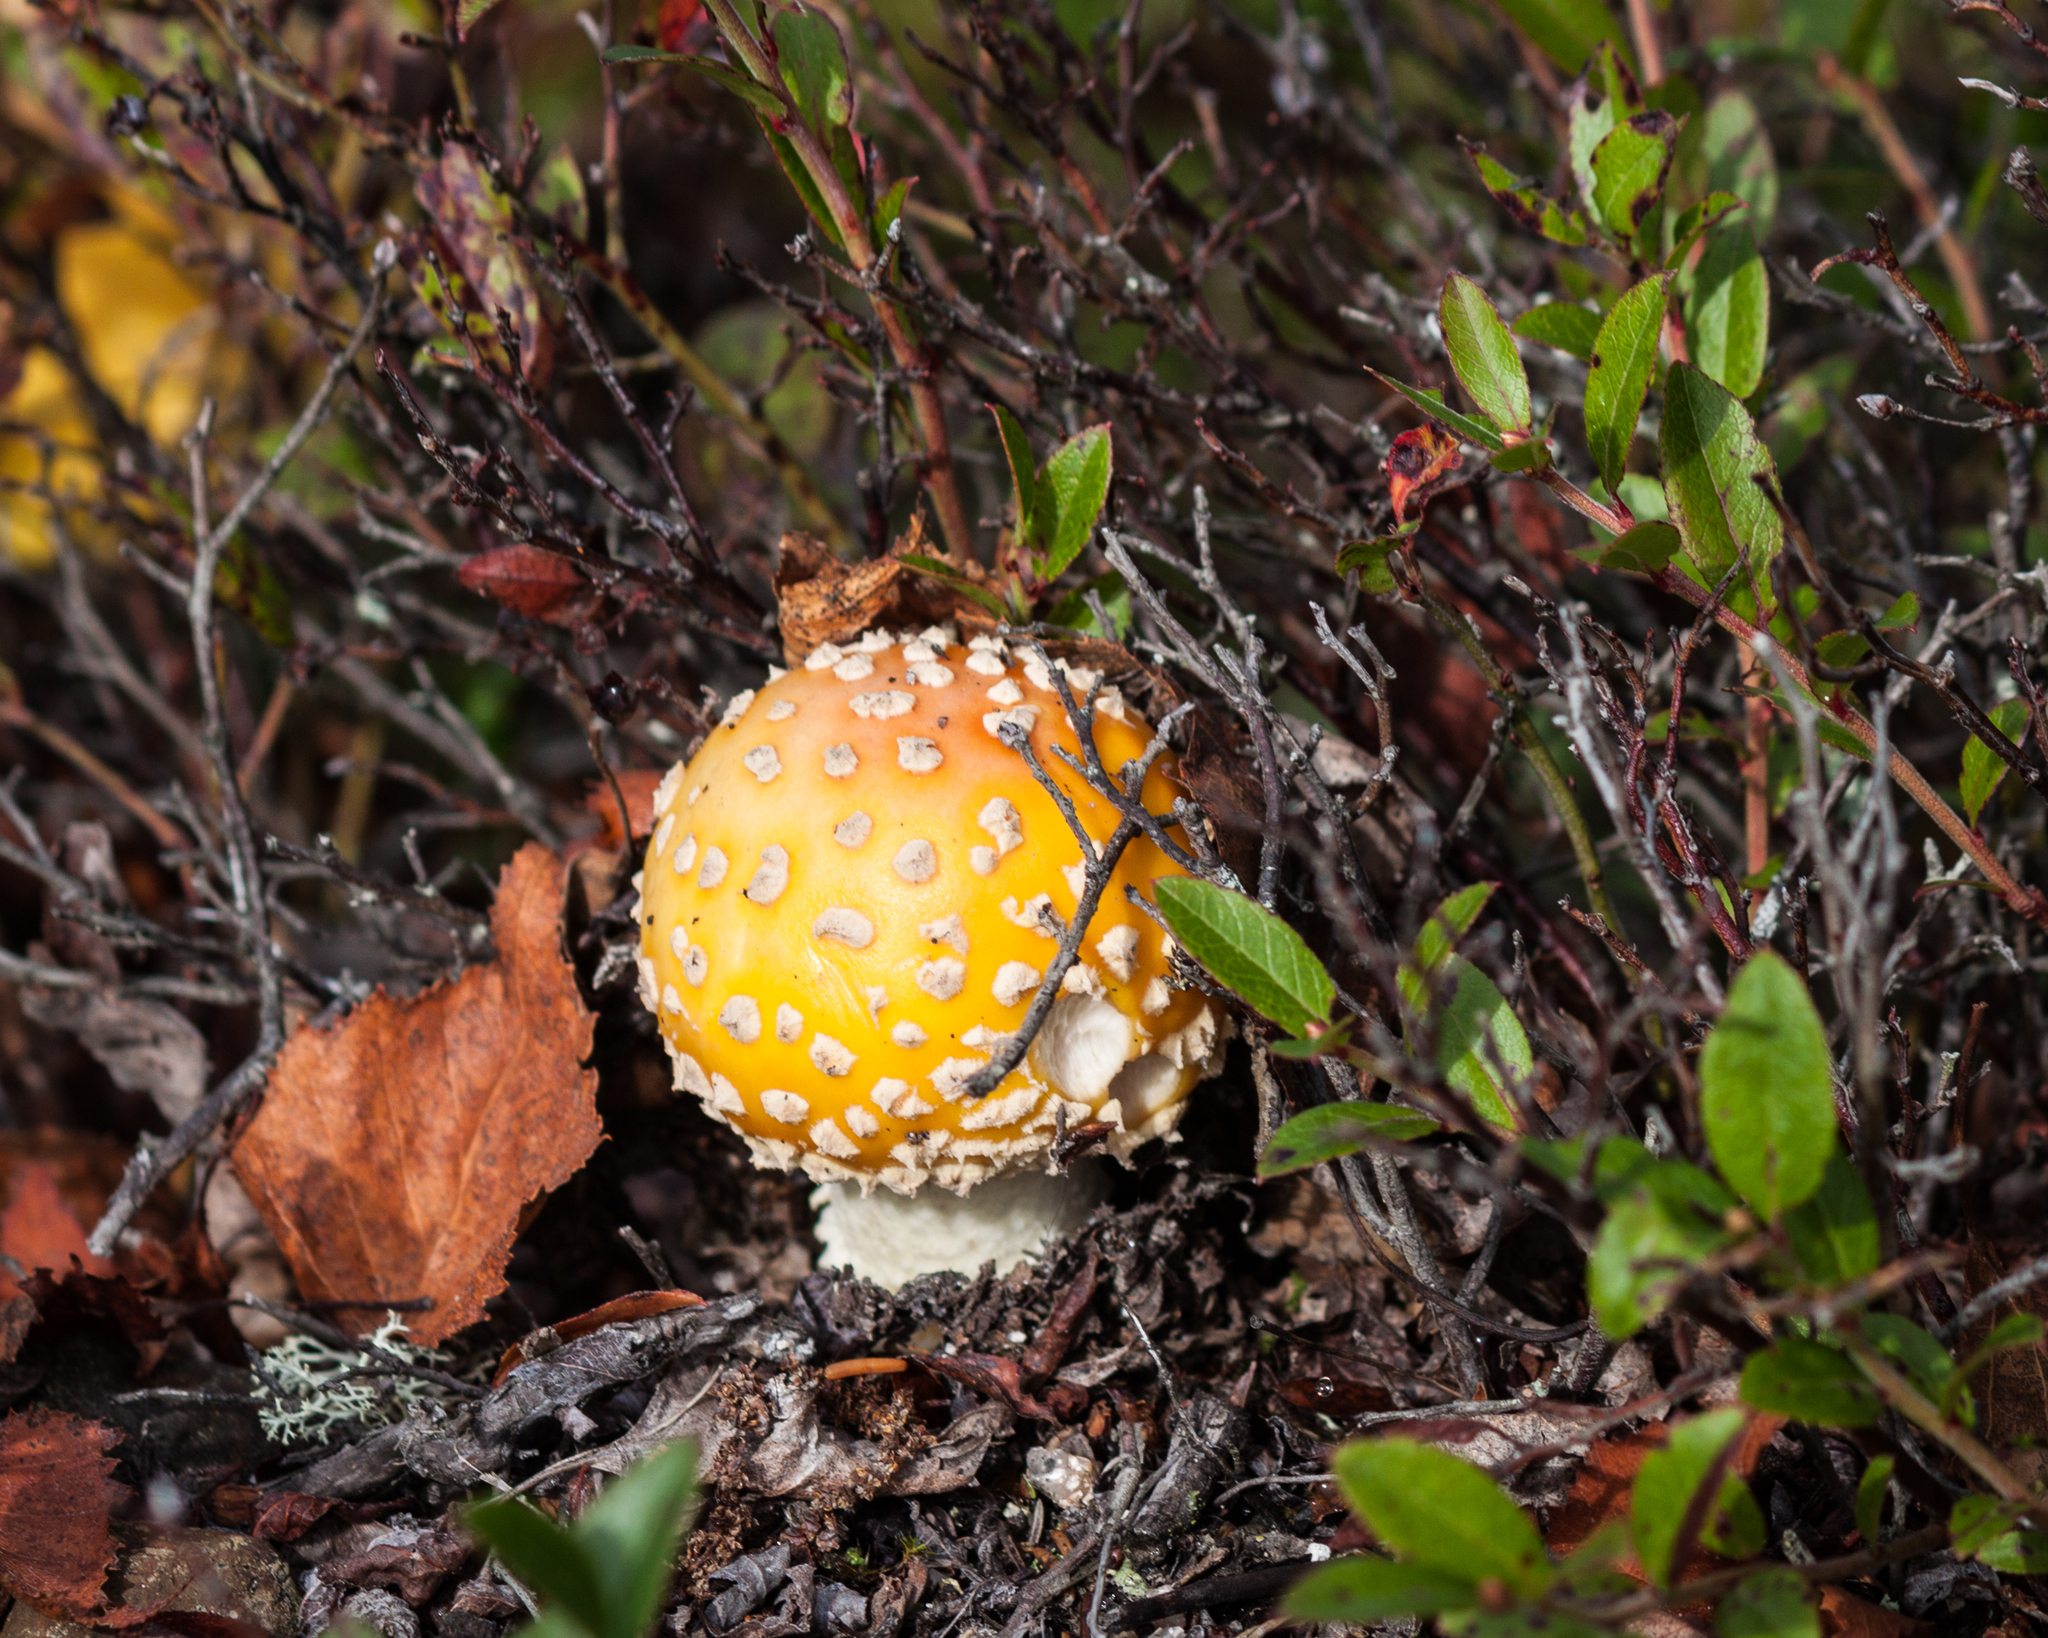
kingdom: Fungi
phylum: Basidiomycota
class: Agaricomycetes
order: Agaricales
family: Amanitaceae
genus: Amanita
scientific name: Amanita muscaria
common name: Fly agaric
